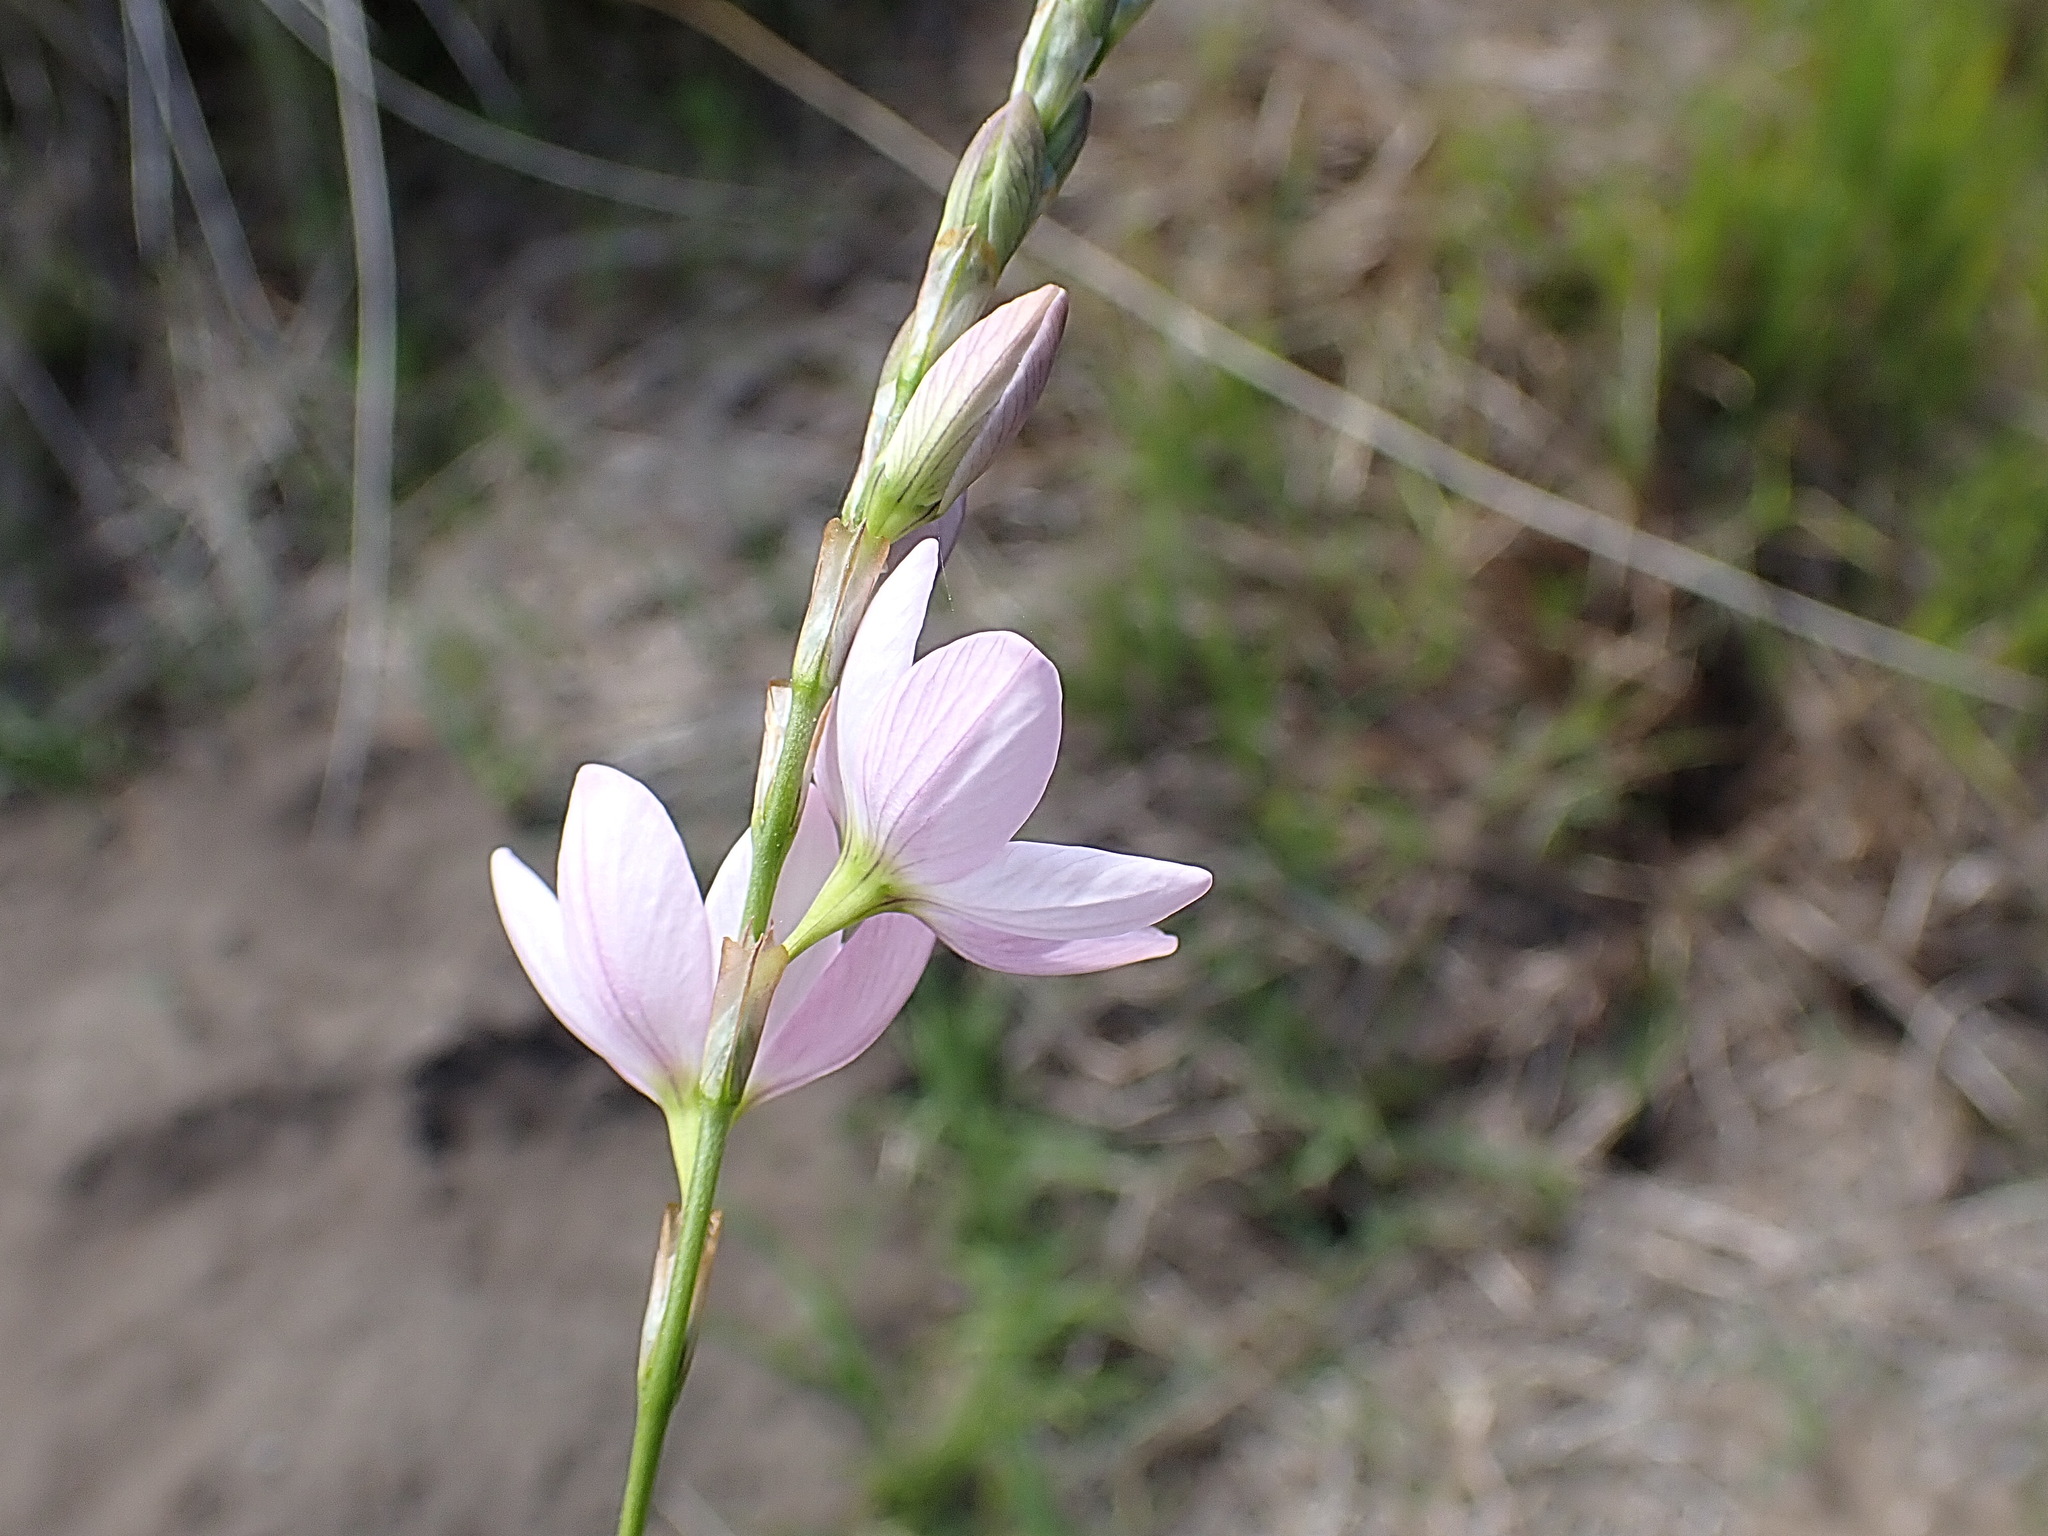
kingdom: Plantae
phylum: Tracheophyta
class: Liliopsida
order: Asparagales
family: Iridaceae
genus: Ixia
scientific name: Ixia orientalis
